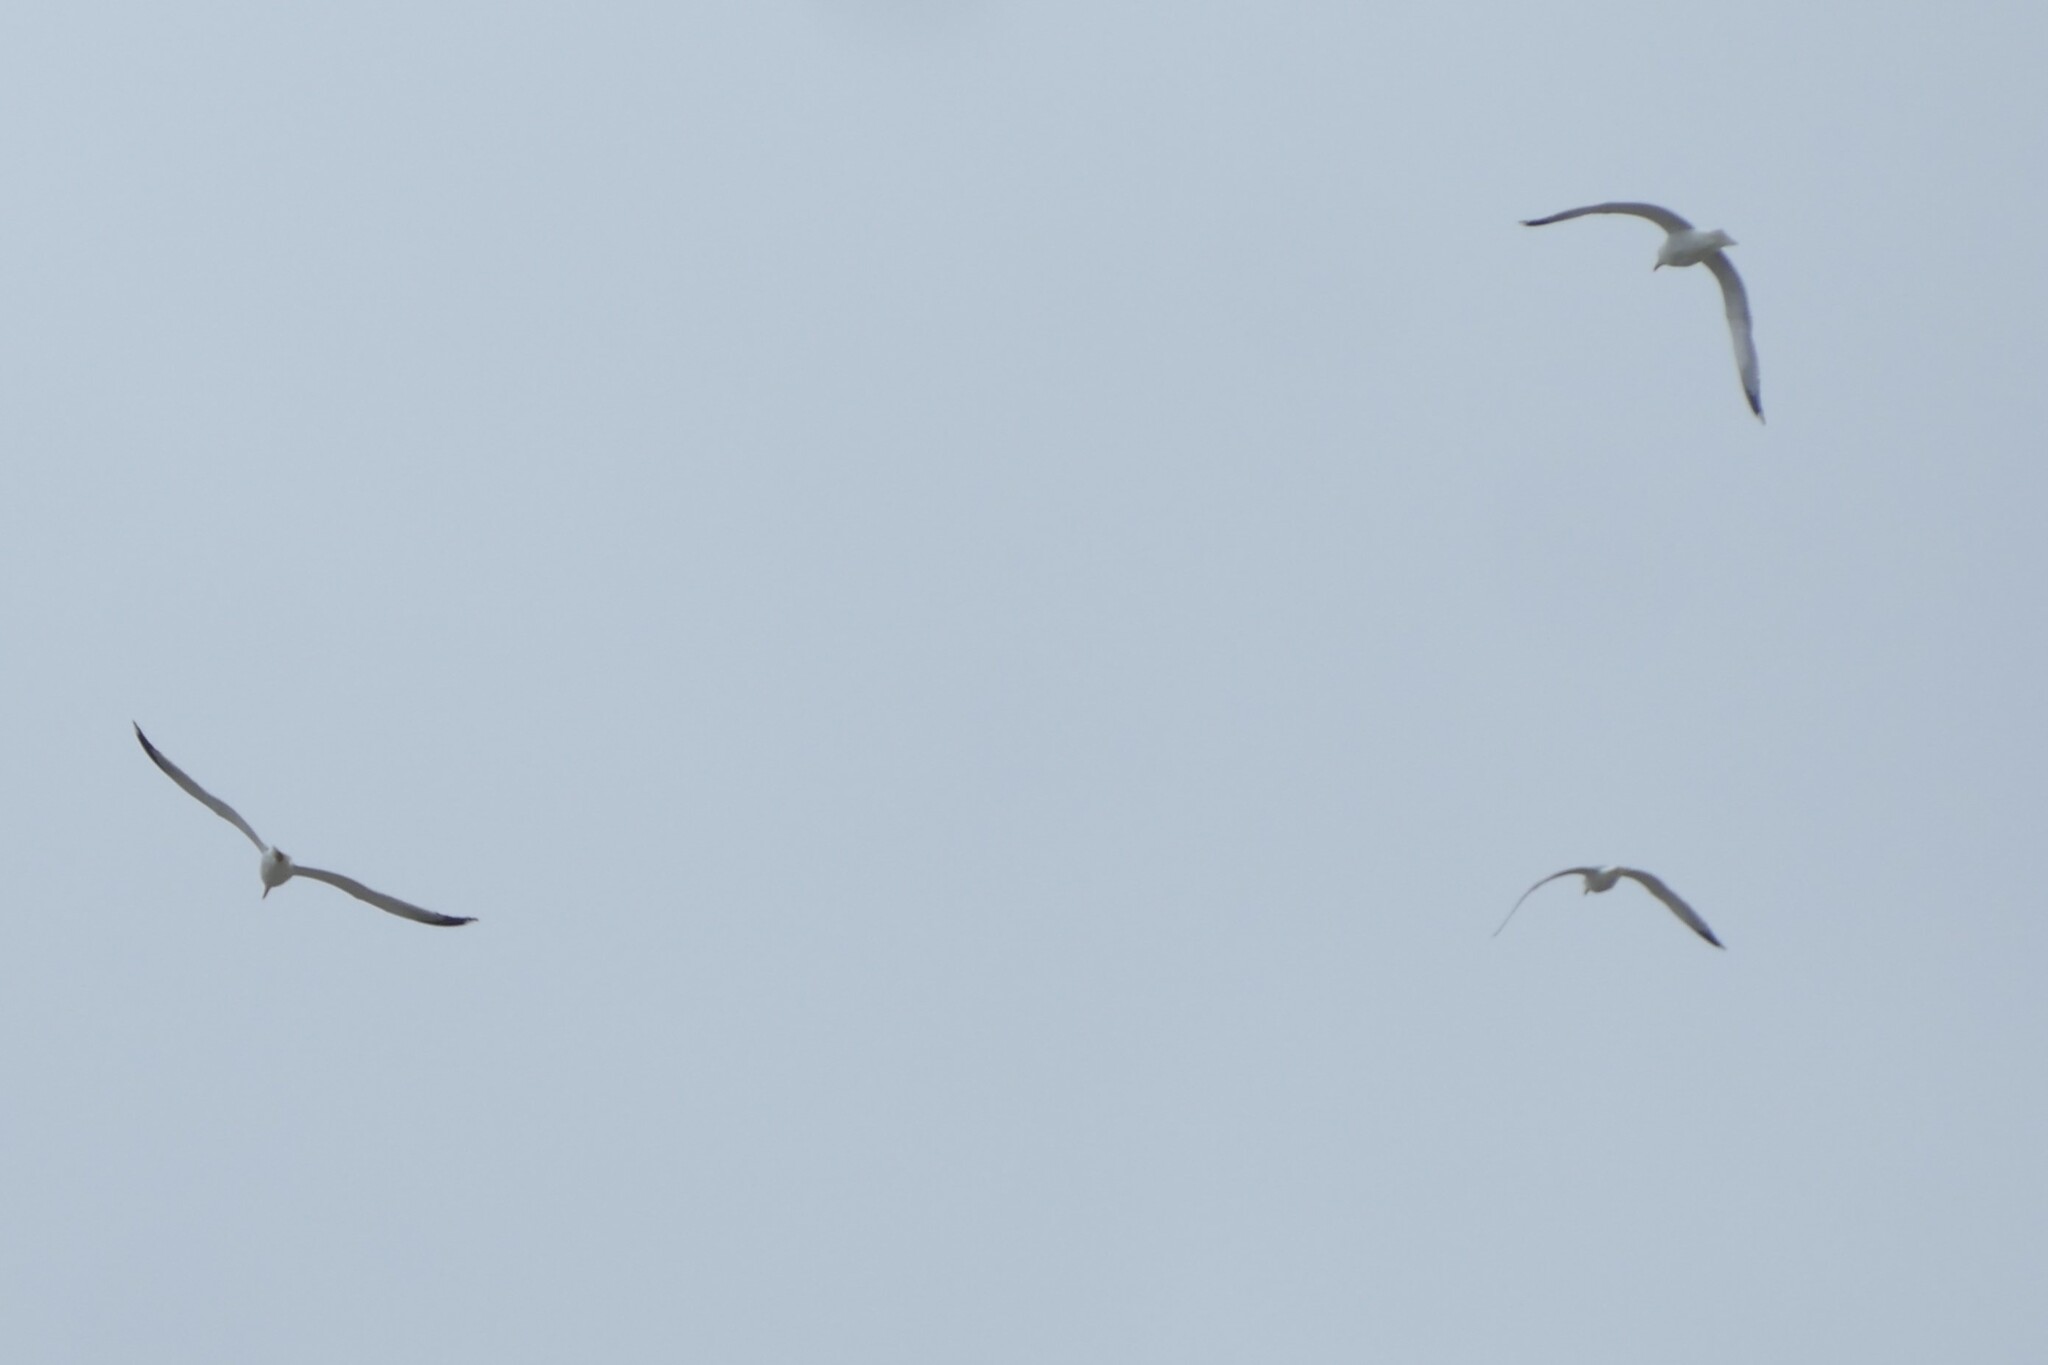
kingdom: Animalia
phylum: Chordata
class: Aves
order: Charadriiformes
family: Laridae
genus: Larus
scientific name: Larus michahellis
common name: Yellow-legged gull
